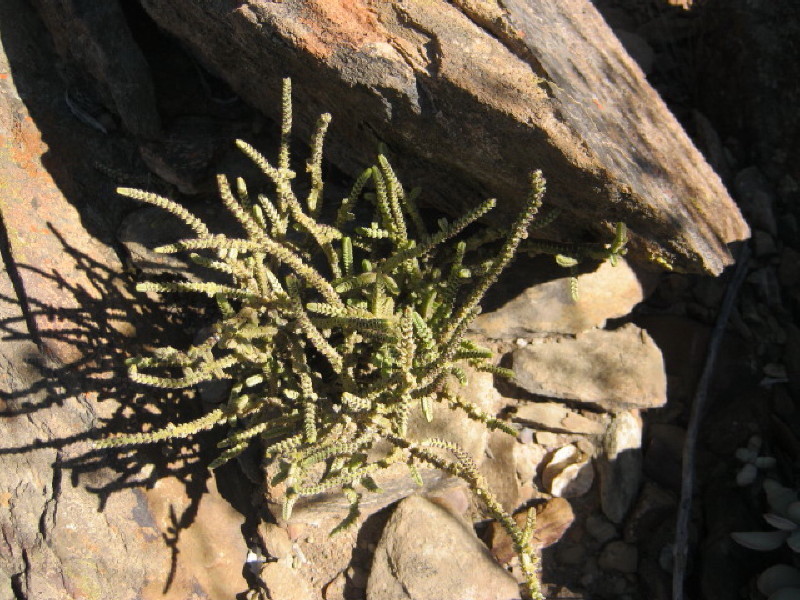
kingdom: Plantae
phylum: Tracheophyta
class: Magnoliopsida
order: Saxifragales
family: Crassulaceae
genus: Crassula
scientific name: Crassula muscosa
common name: Toy-cypress
